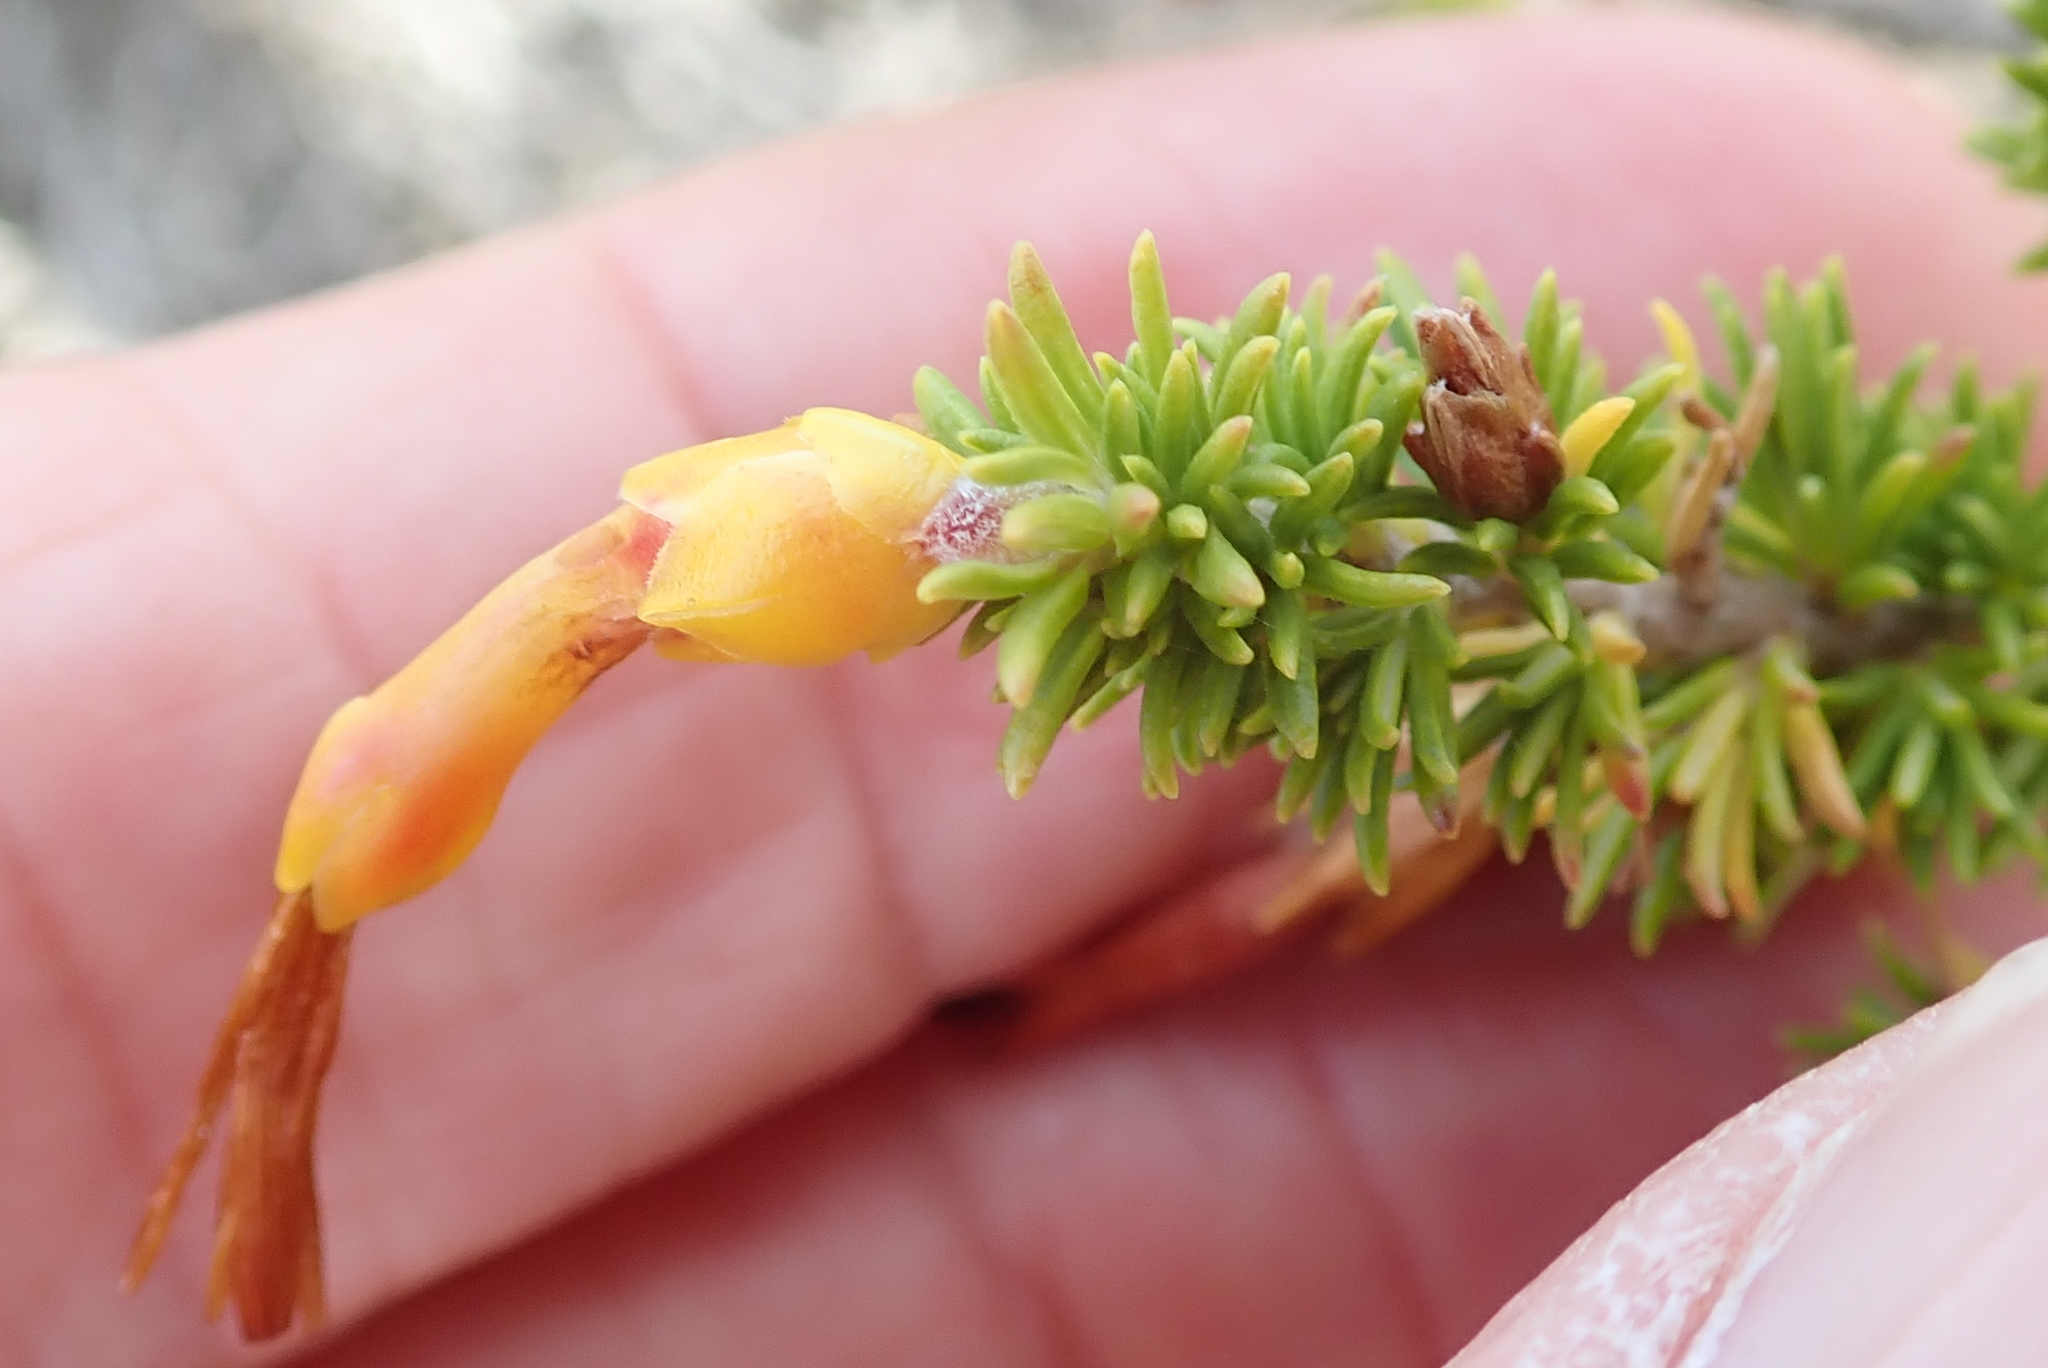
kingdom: Plantae
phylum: Tracheophyta
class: Magnoliopsida
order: Ericales
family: Ericaceae
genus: Erica
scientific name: Erica coccinea
